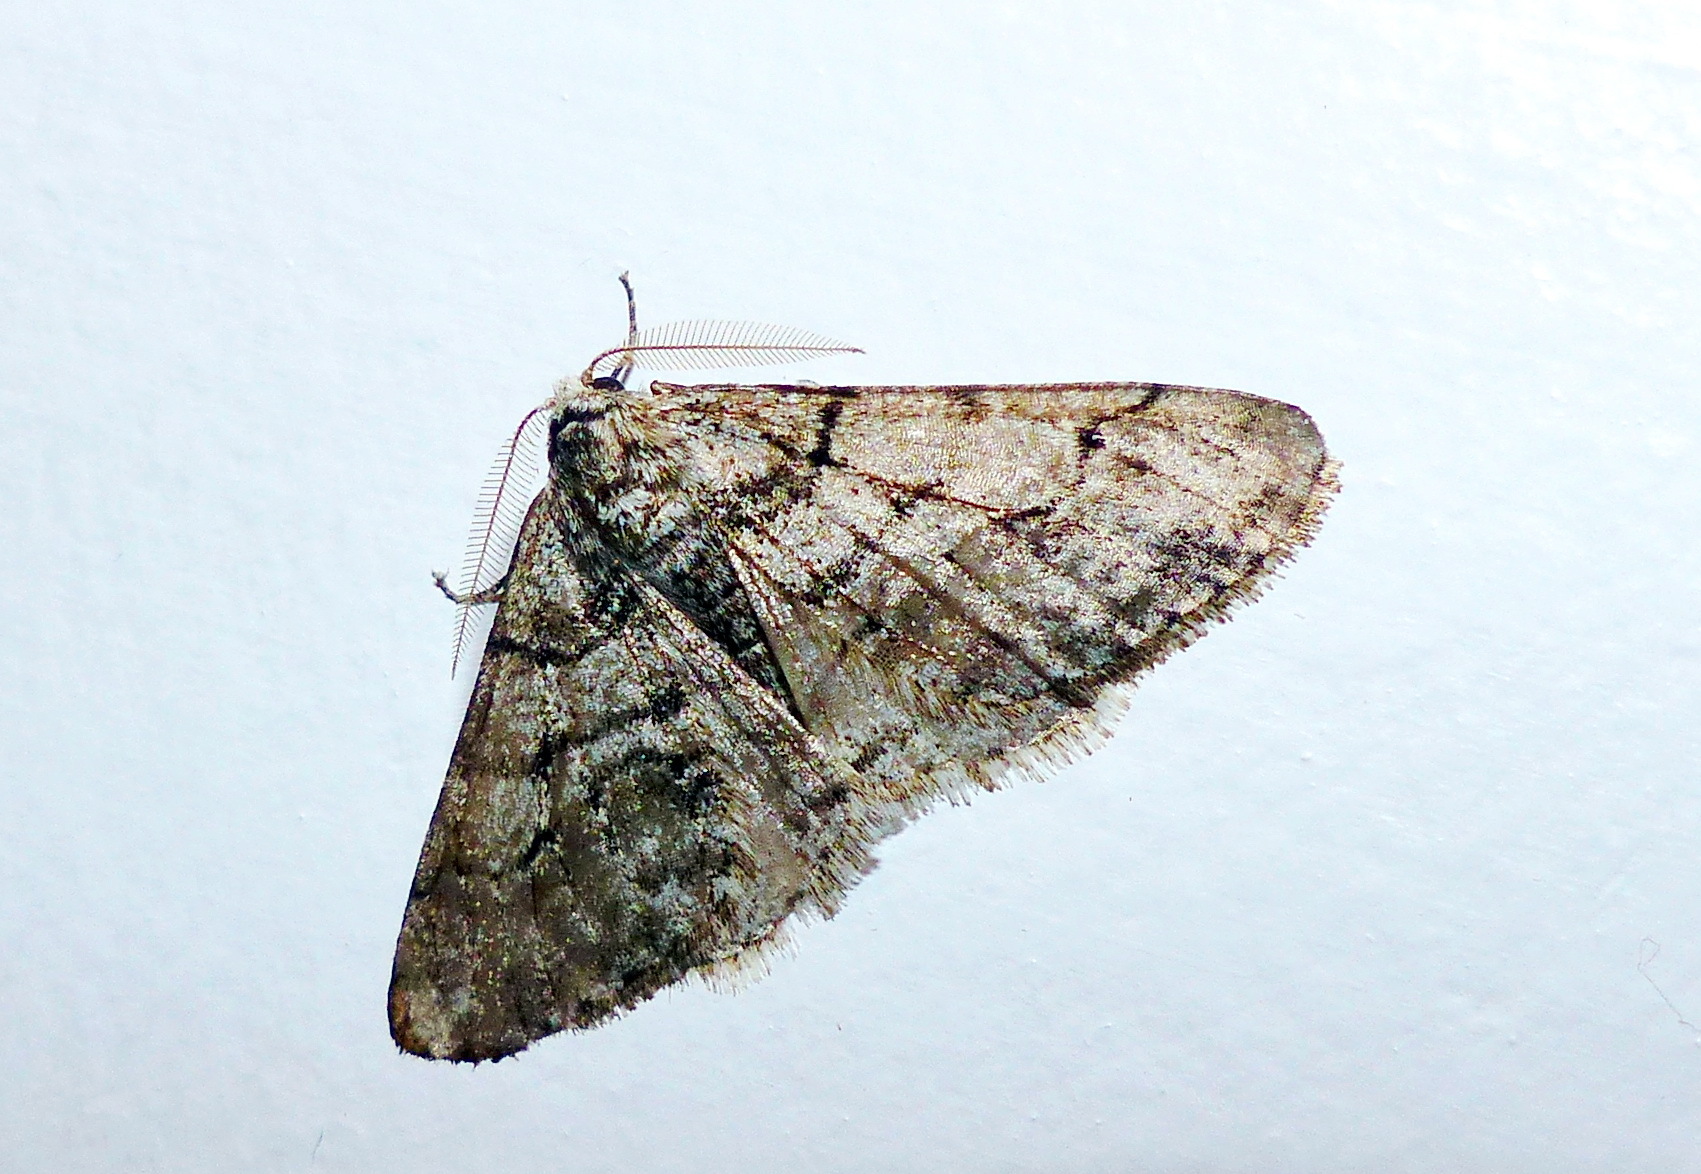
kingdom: Animalia
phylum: Arthropoda
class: Insecta
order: Lepidoptera
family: Geometridae
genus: Phigalia
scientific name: Phigalia titea
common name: Spiny looper
